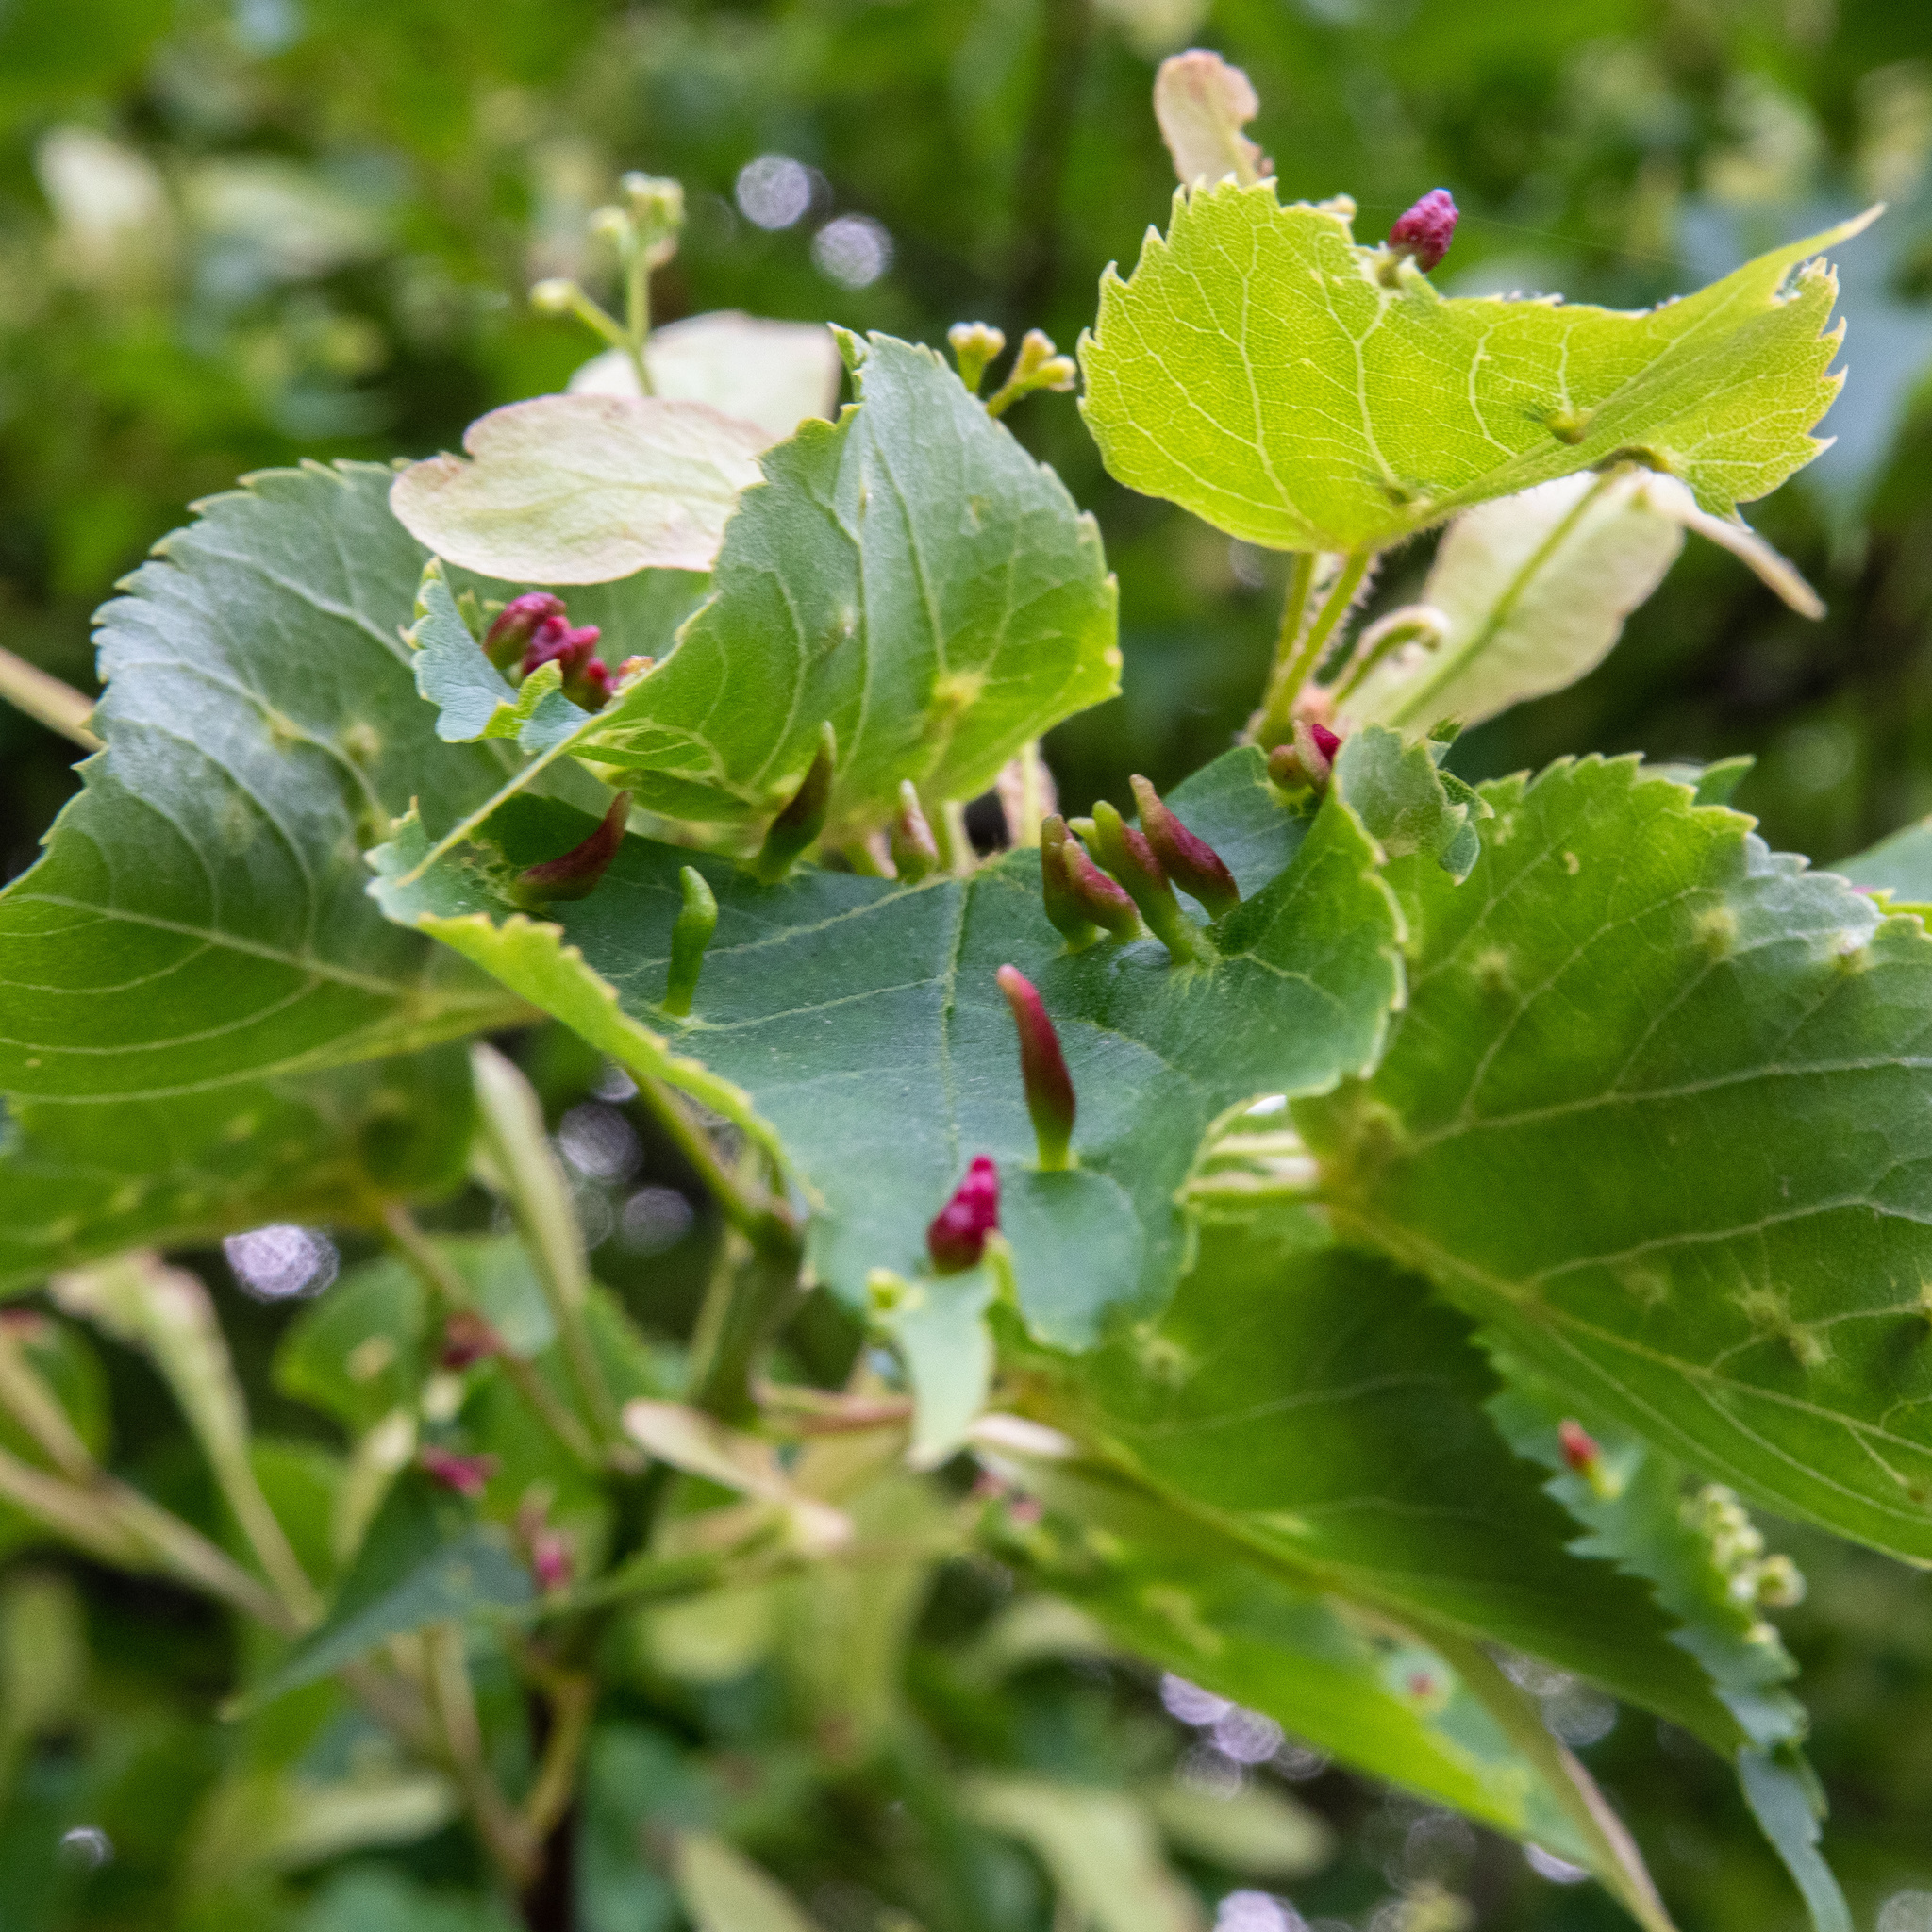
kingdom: Animalia
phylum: Arthropoda
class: Arachnida
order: Trombidiformes
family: Eriophyidae
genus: Eriophyes
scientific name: Eriophyes tiliae
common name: Red nail gall mite
